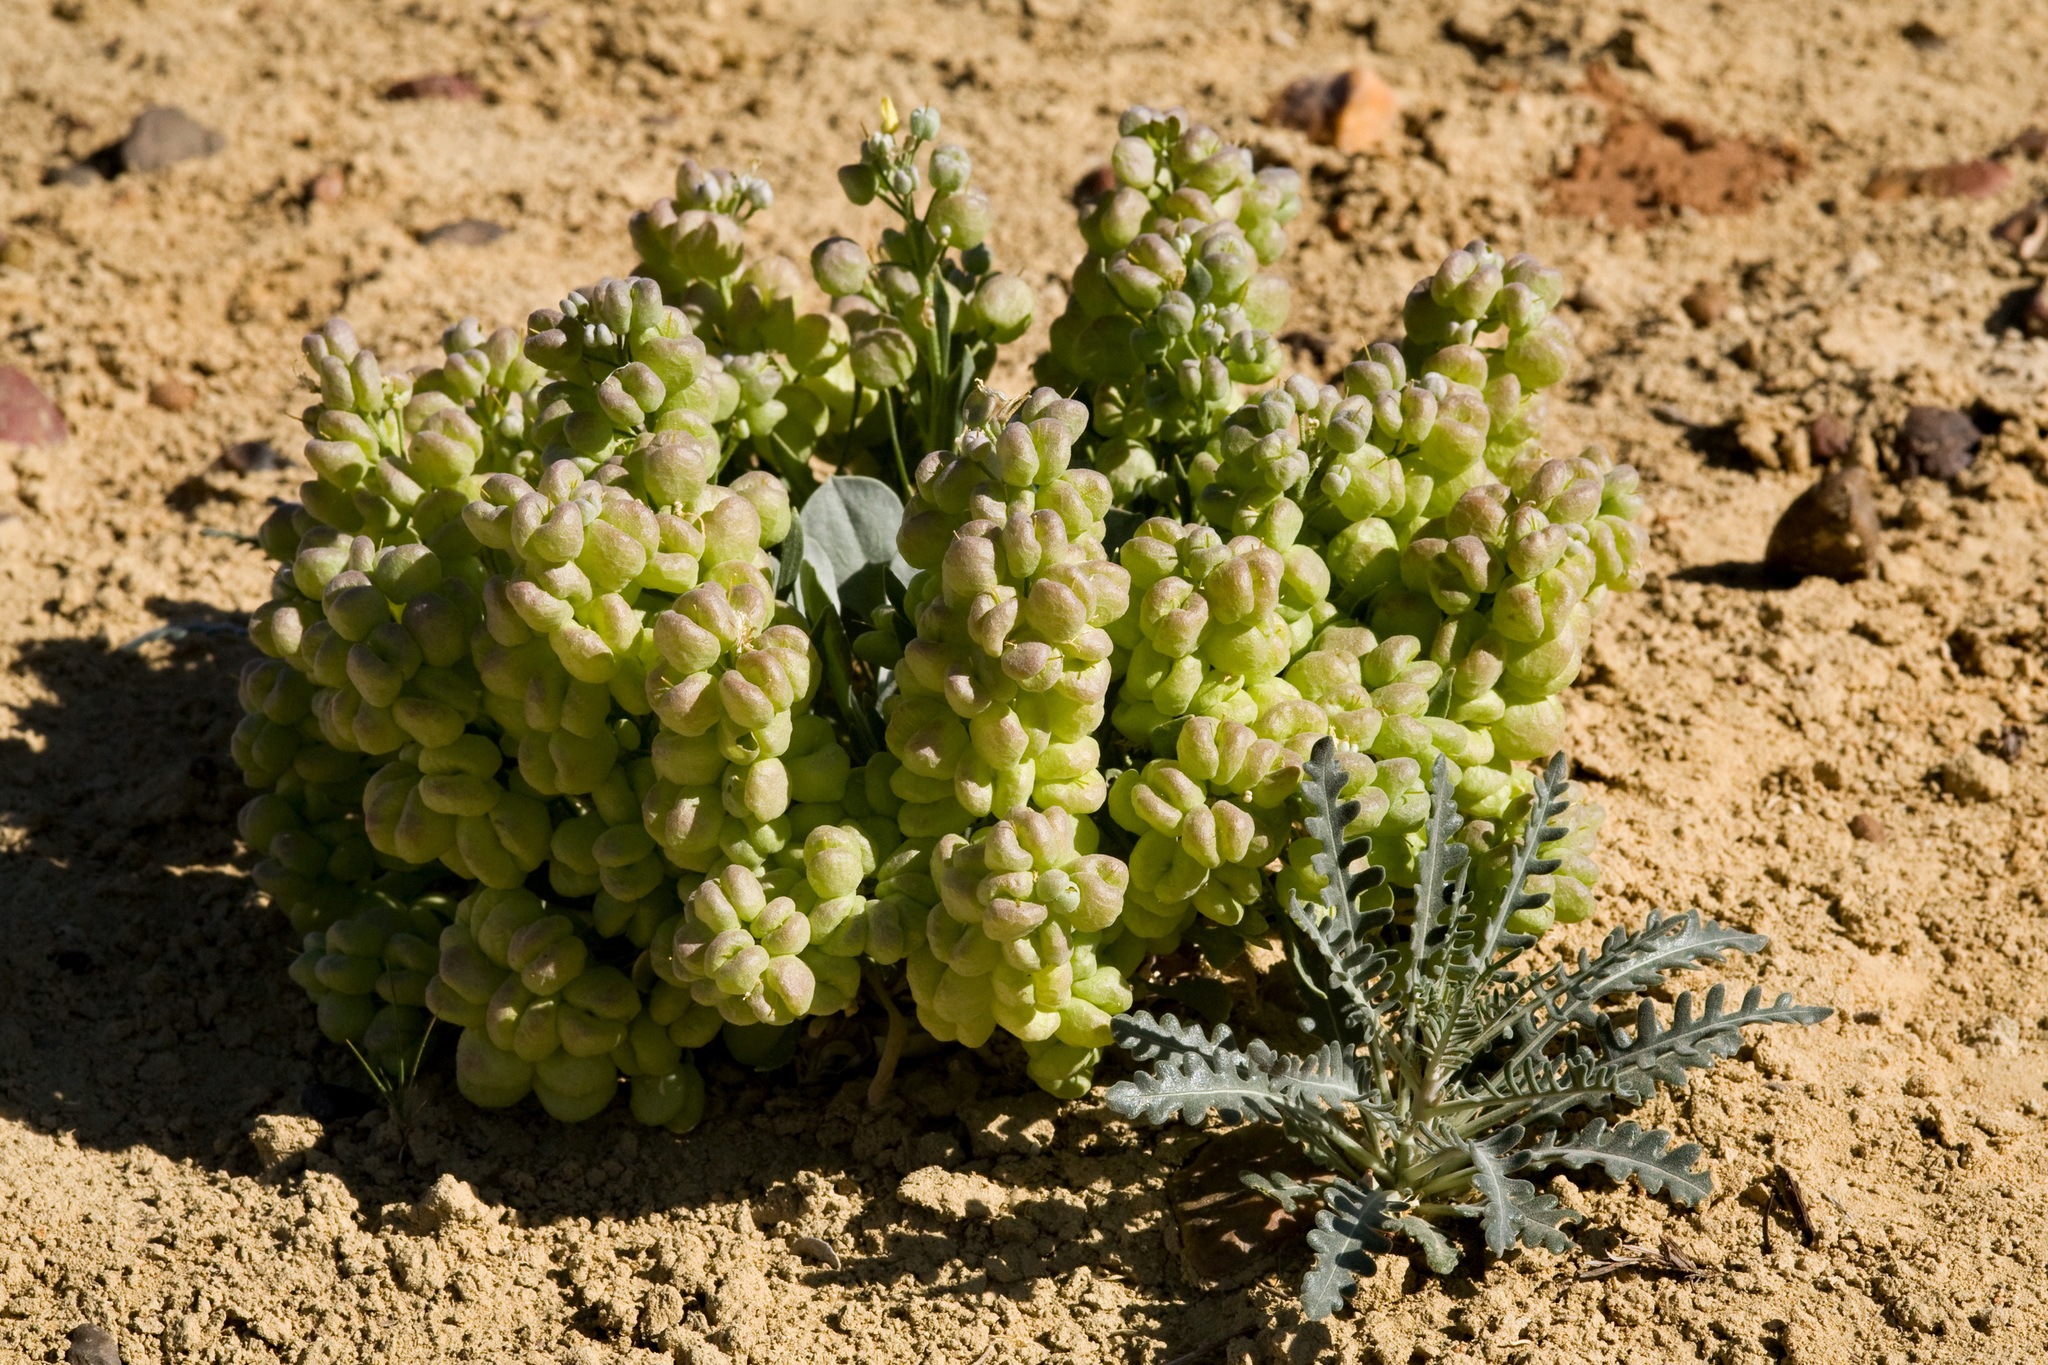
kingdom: Plantae
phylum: Tracheophyta
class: Magnoliopsida
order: Brassicales
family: Brassicaceae
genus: Physaria
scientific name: Physaria acutifolia
